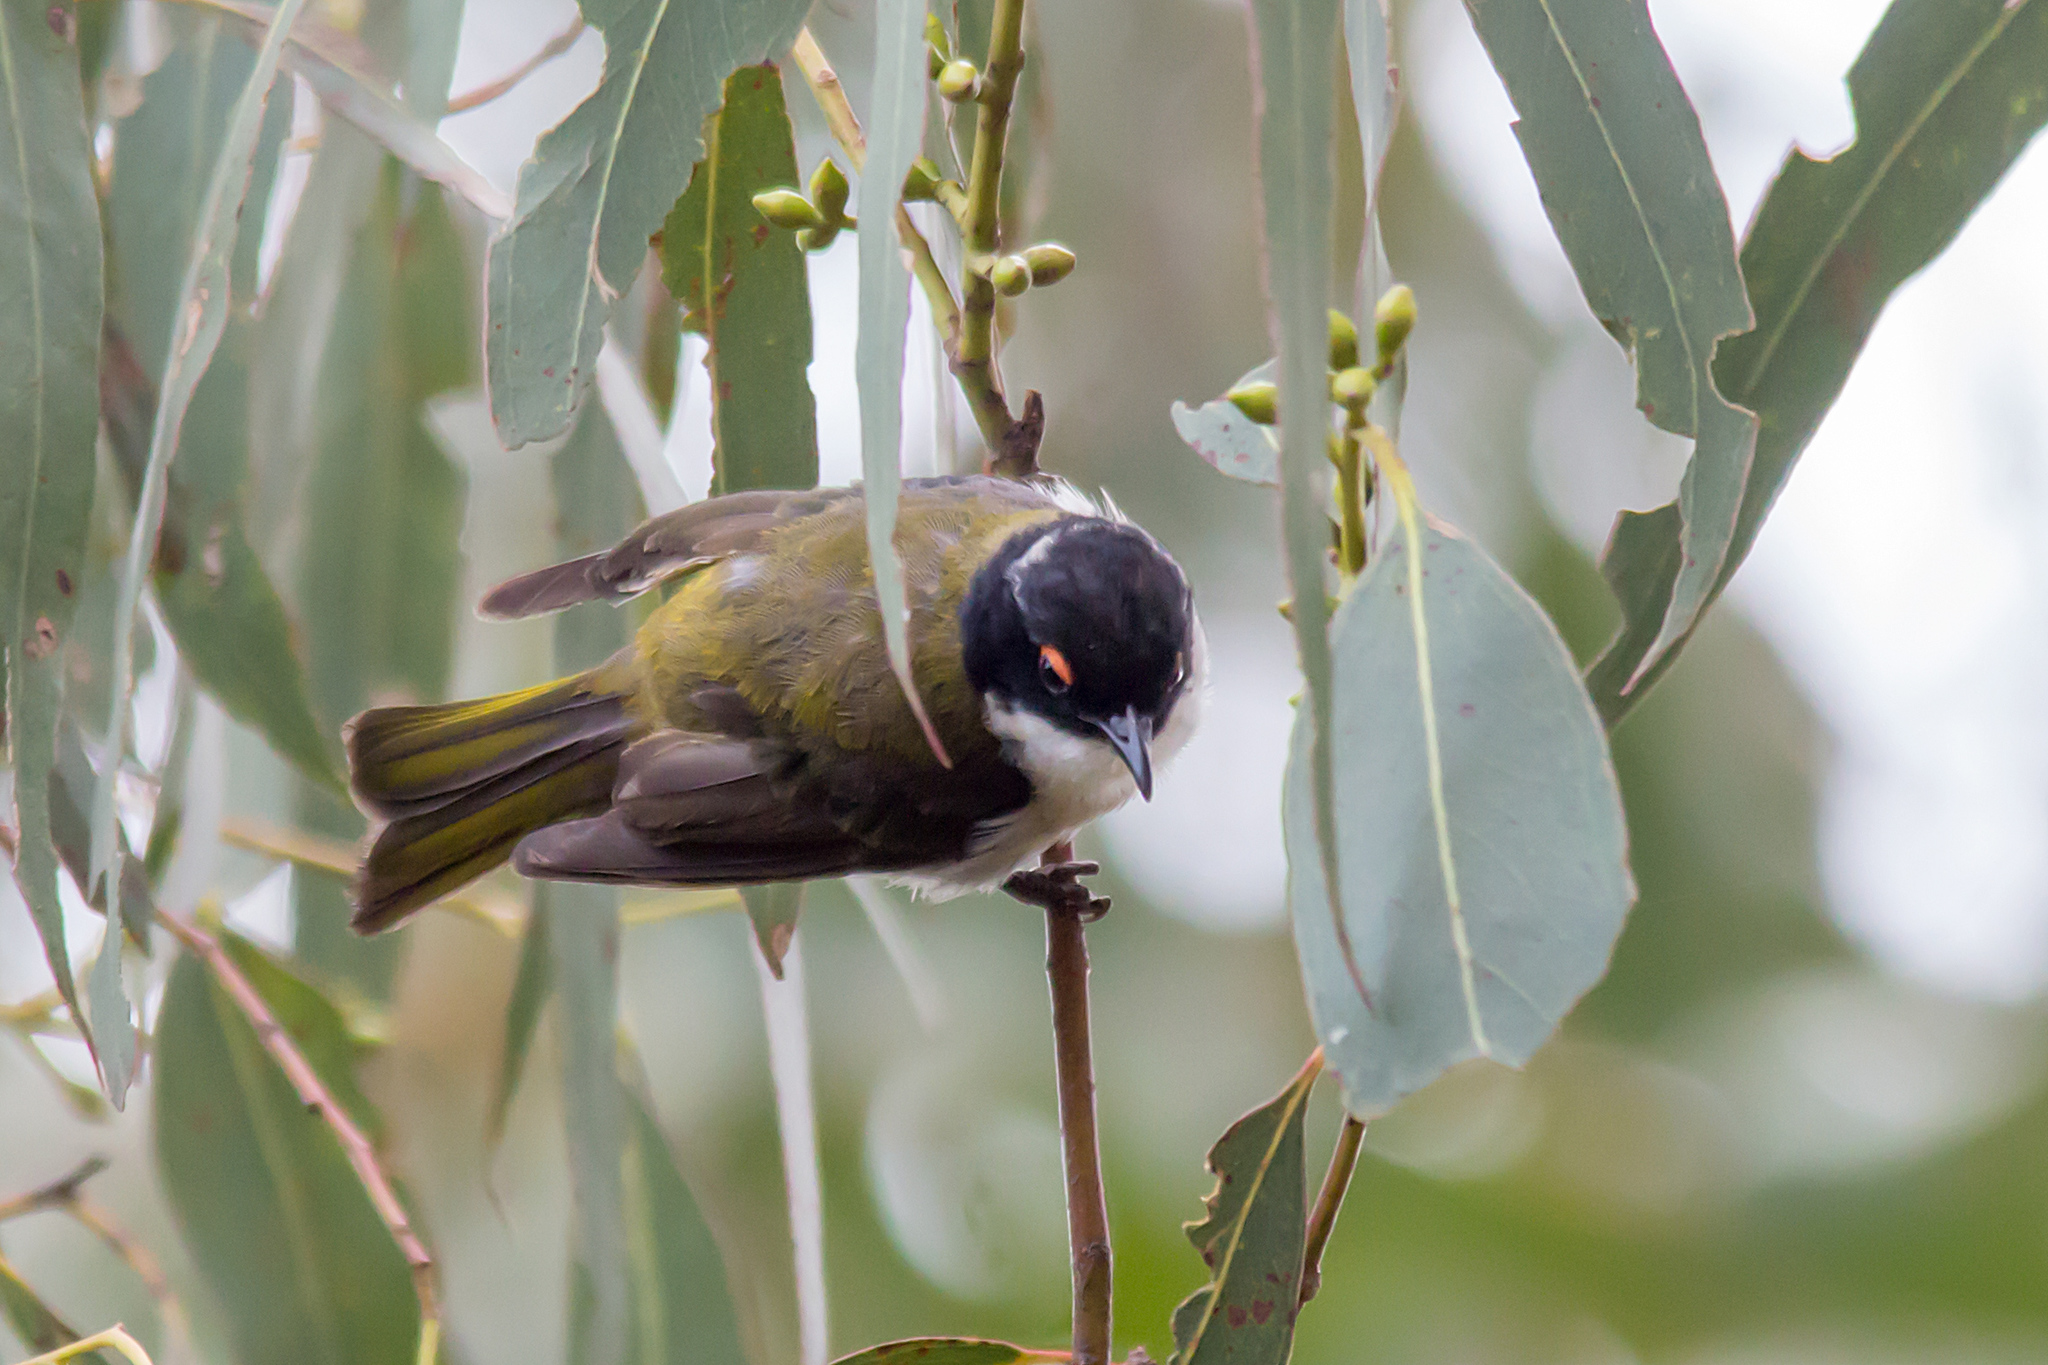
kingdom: Animalia
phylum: Chordata
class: Aves
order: Passeriformes
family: Meliphagidae
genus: Melithreptus
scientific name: Melithreptus lunatus
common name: White-naped honeyeater
